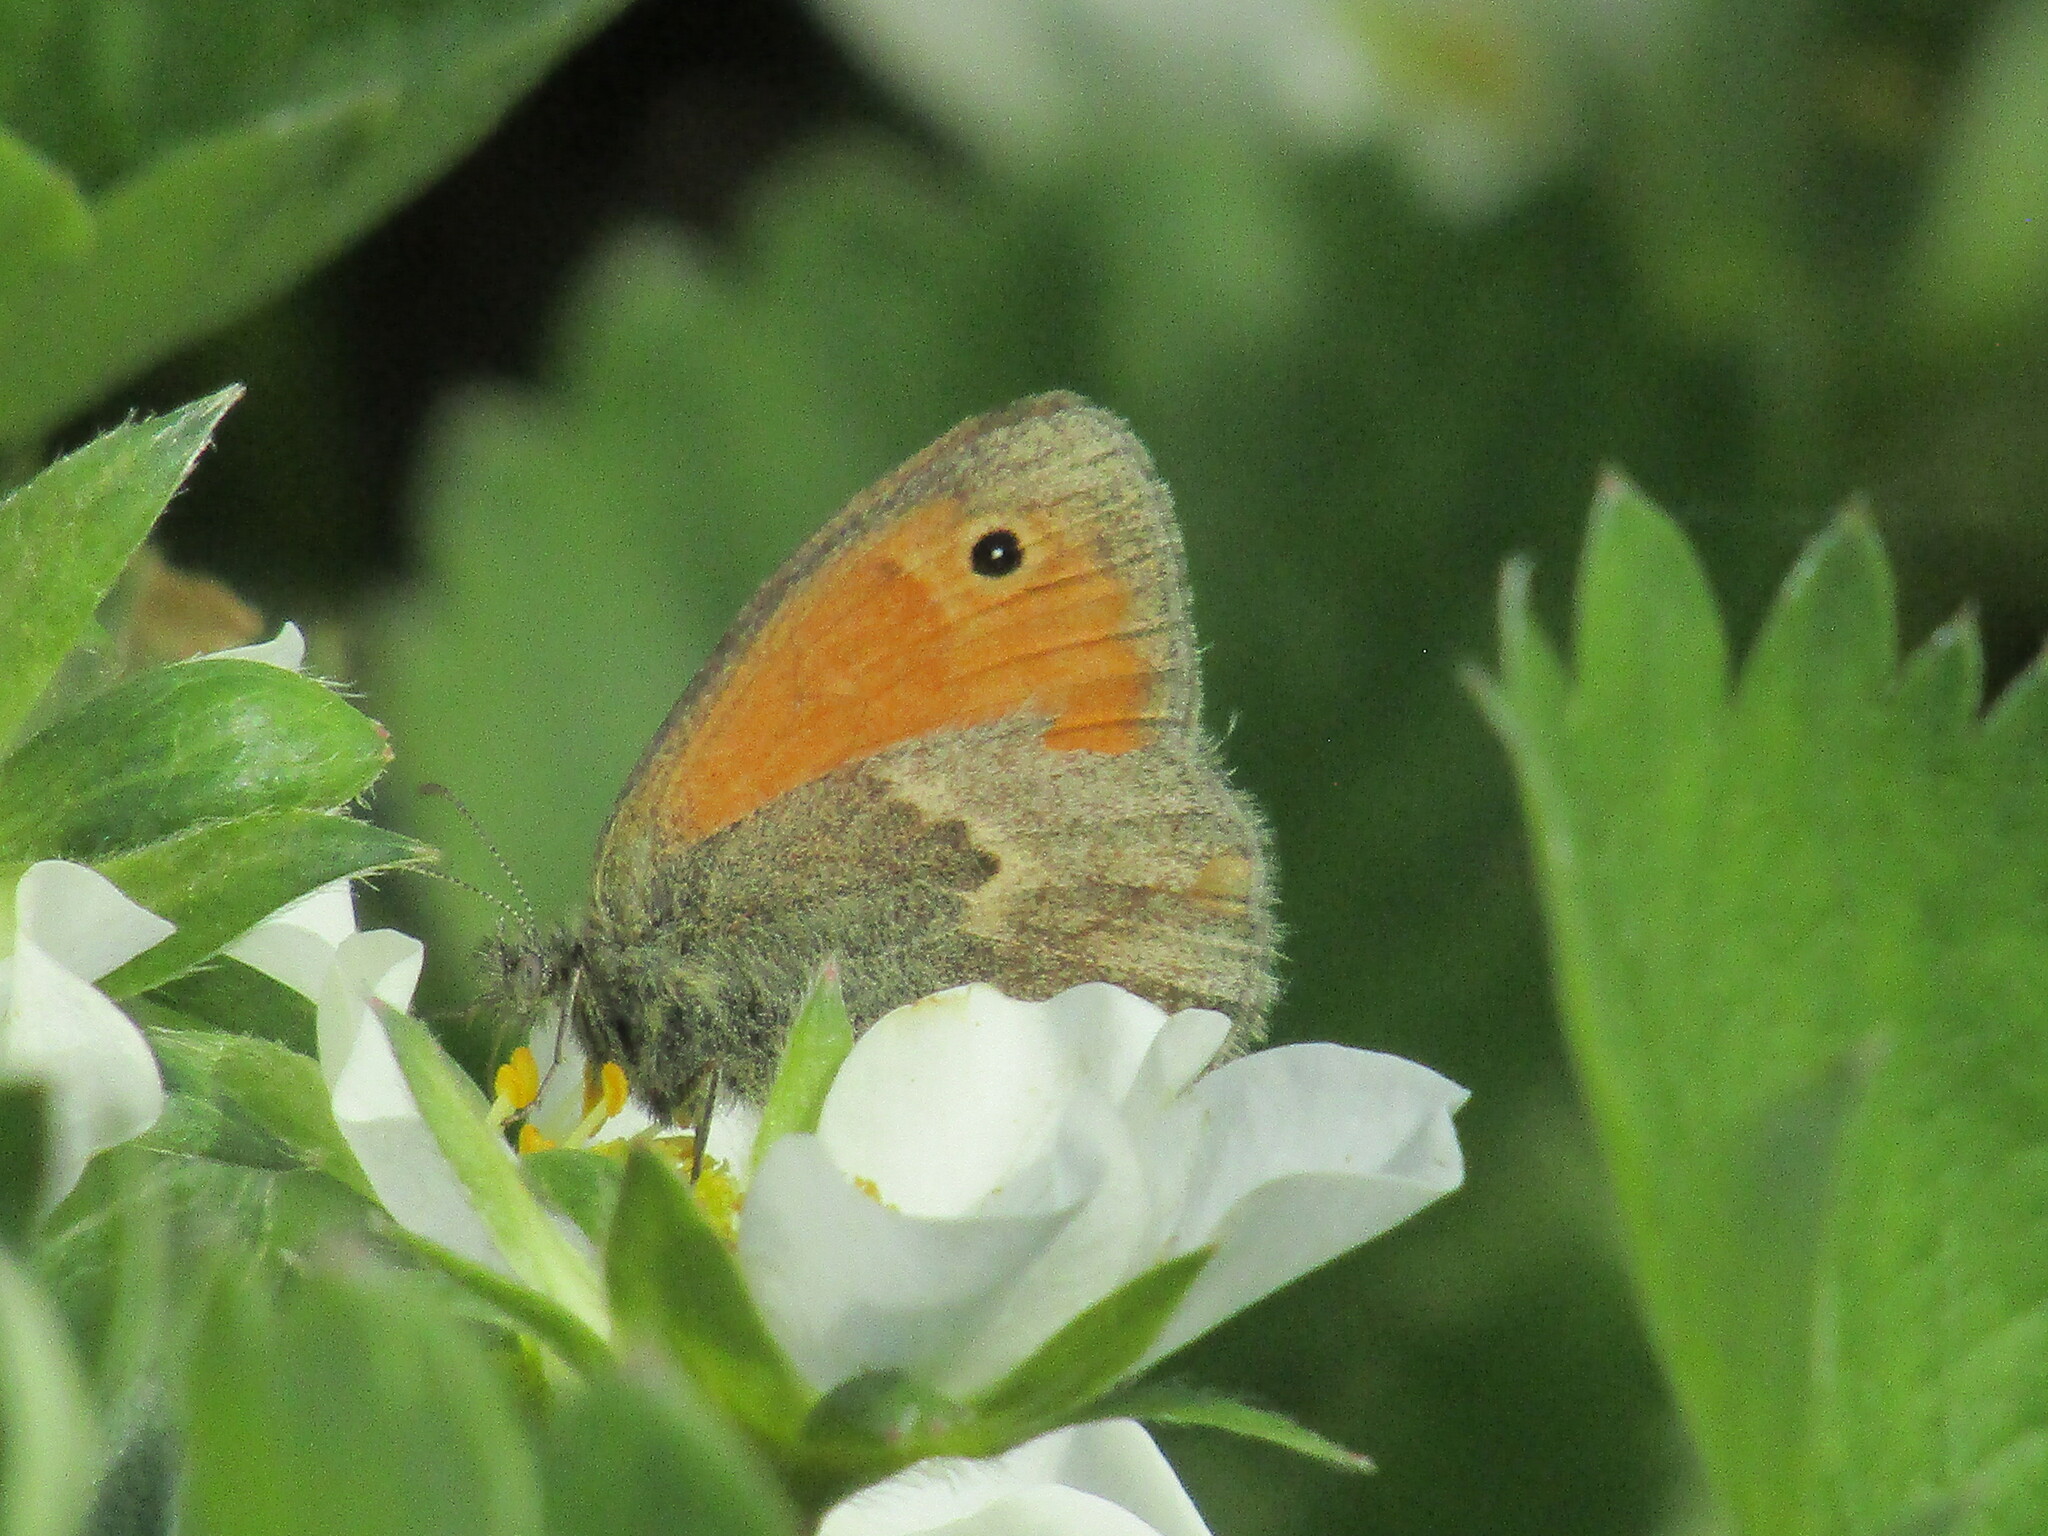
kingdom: Animalia
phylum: Arthropoda
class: Insecta
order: Lepidoptera
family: Nymphalidae
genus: Coenonympha
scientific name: Coenonympha pamphilus
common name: Small heath
